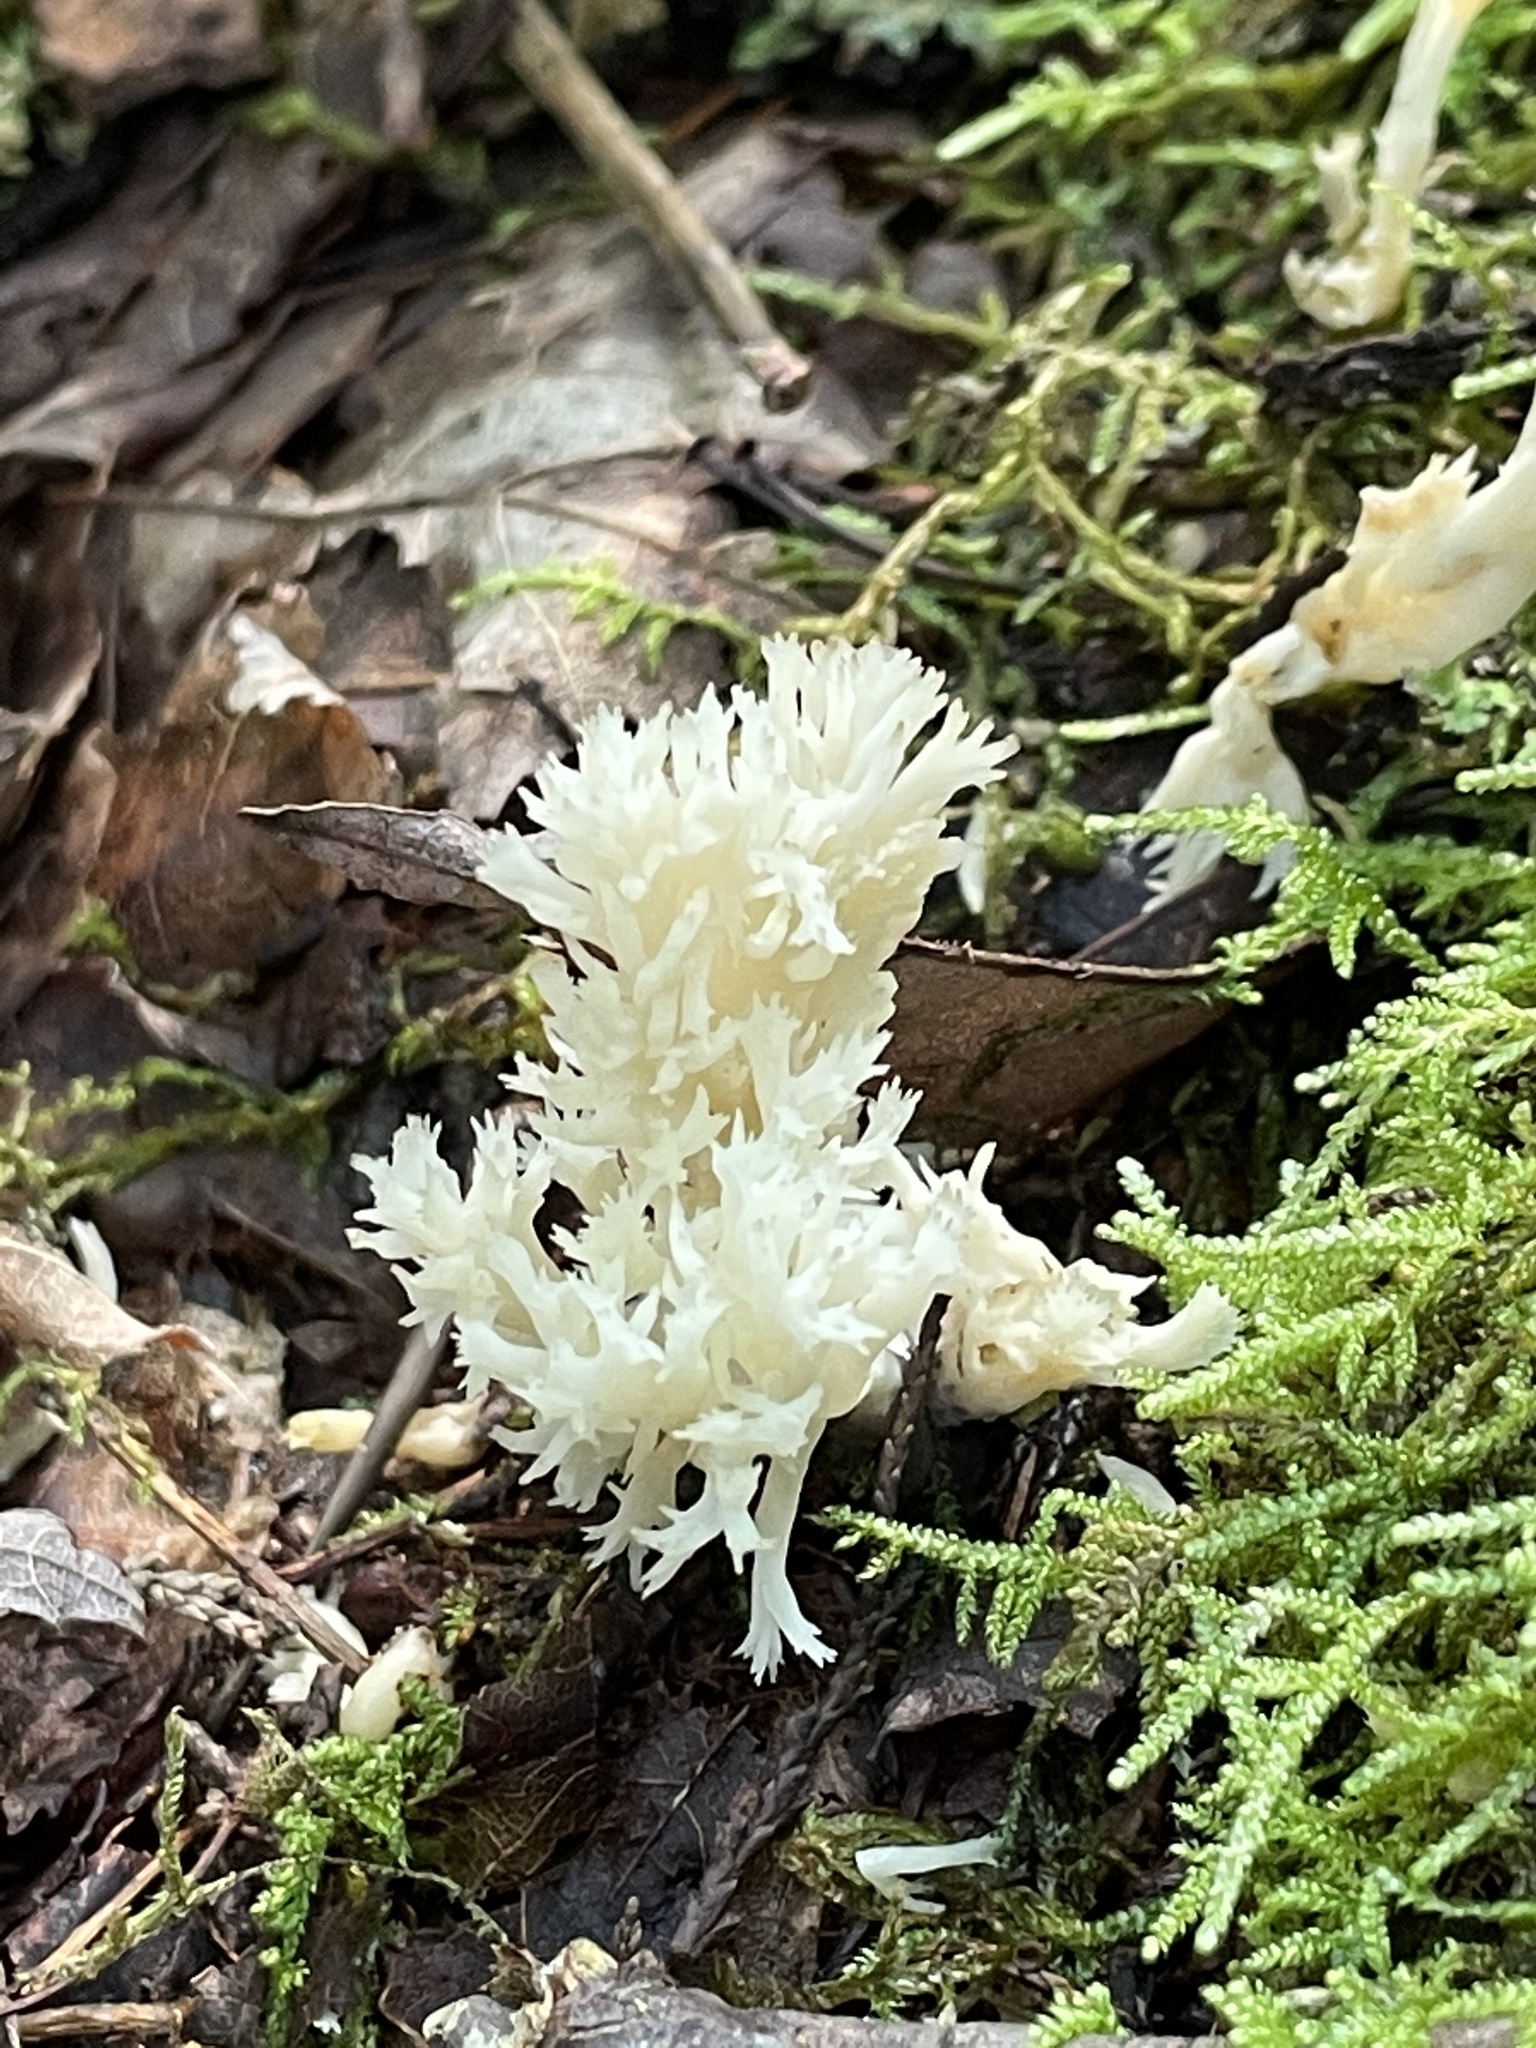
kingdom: Fungi
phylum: Basidiomycota
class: Agaricomycetes
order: Cantharellales
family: Hydnaceae
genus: Clavulina
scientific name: Clavulina coralloides
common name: Crested coral
